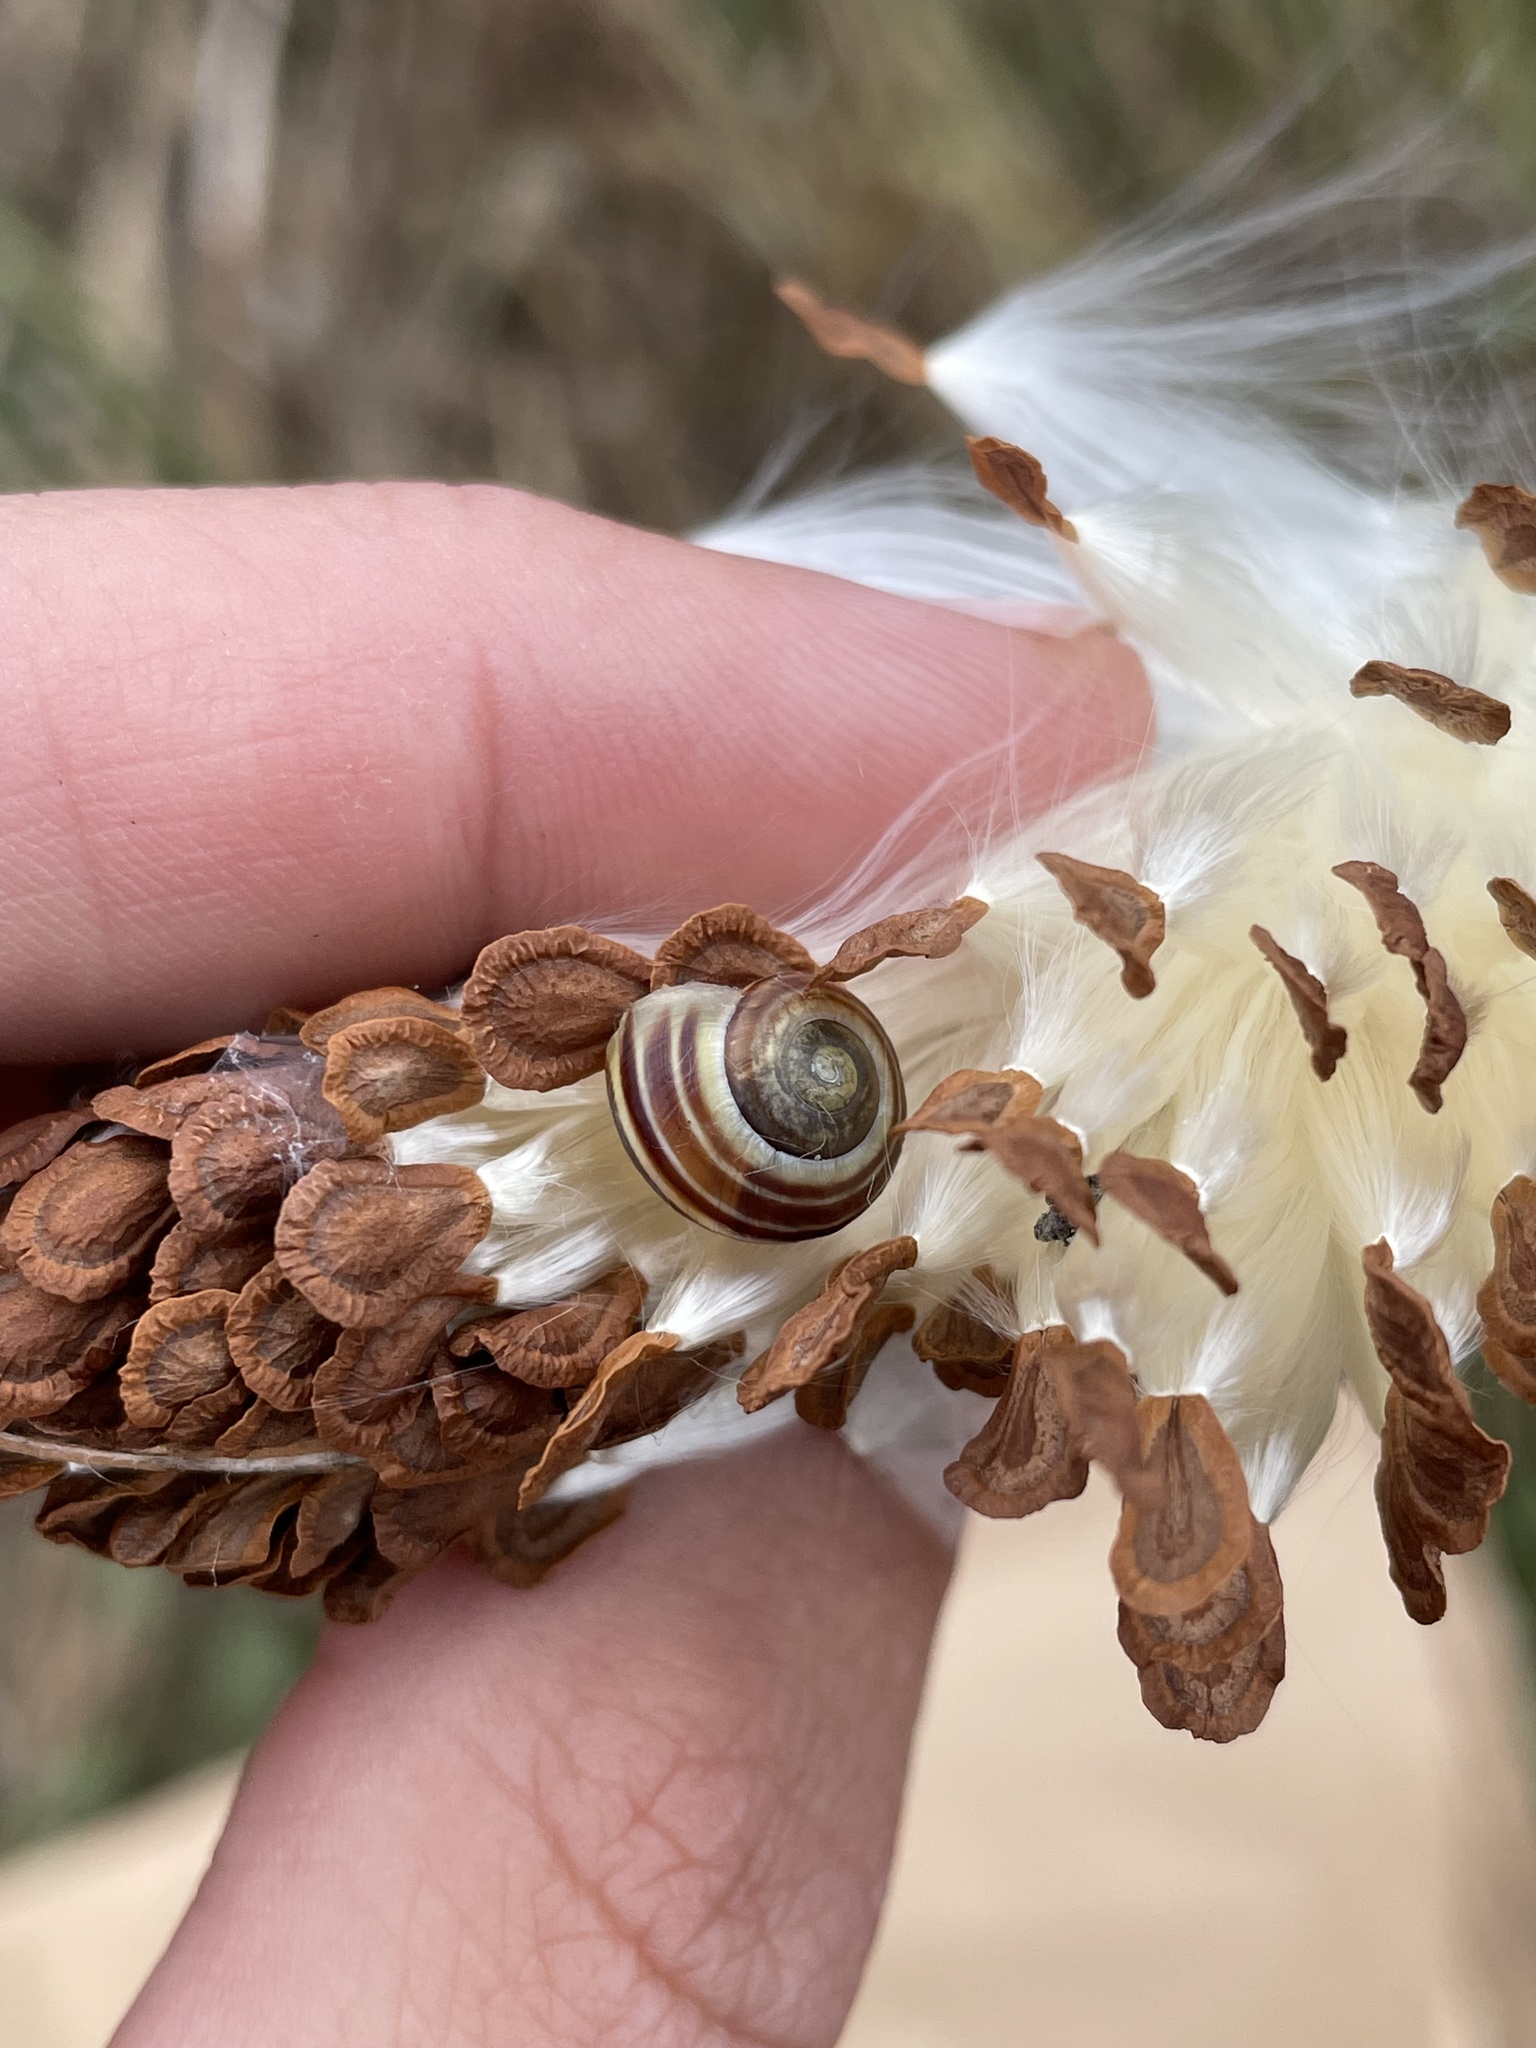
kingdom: Animalia
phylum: Mollusca
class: Gastropoda
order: Stylommatophora
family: Helicidae
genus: Cepaea
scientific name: Cepaea
